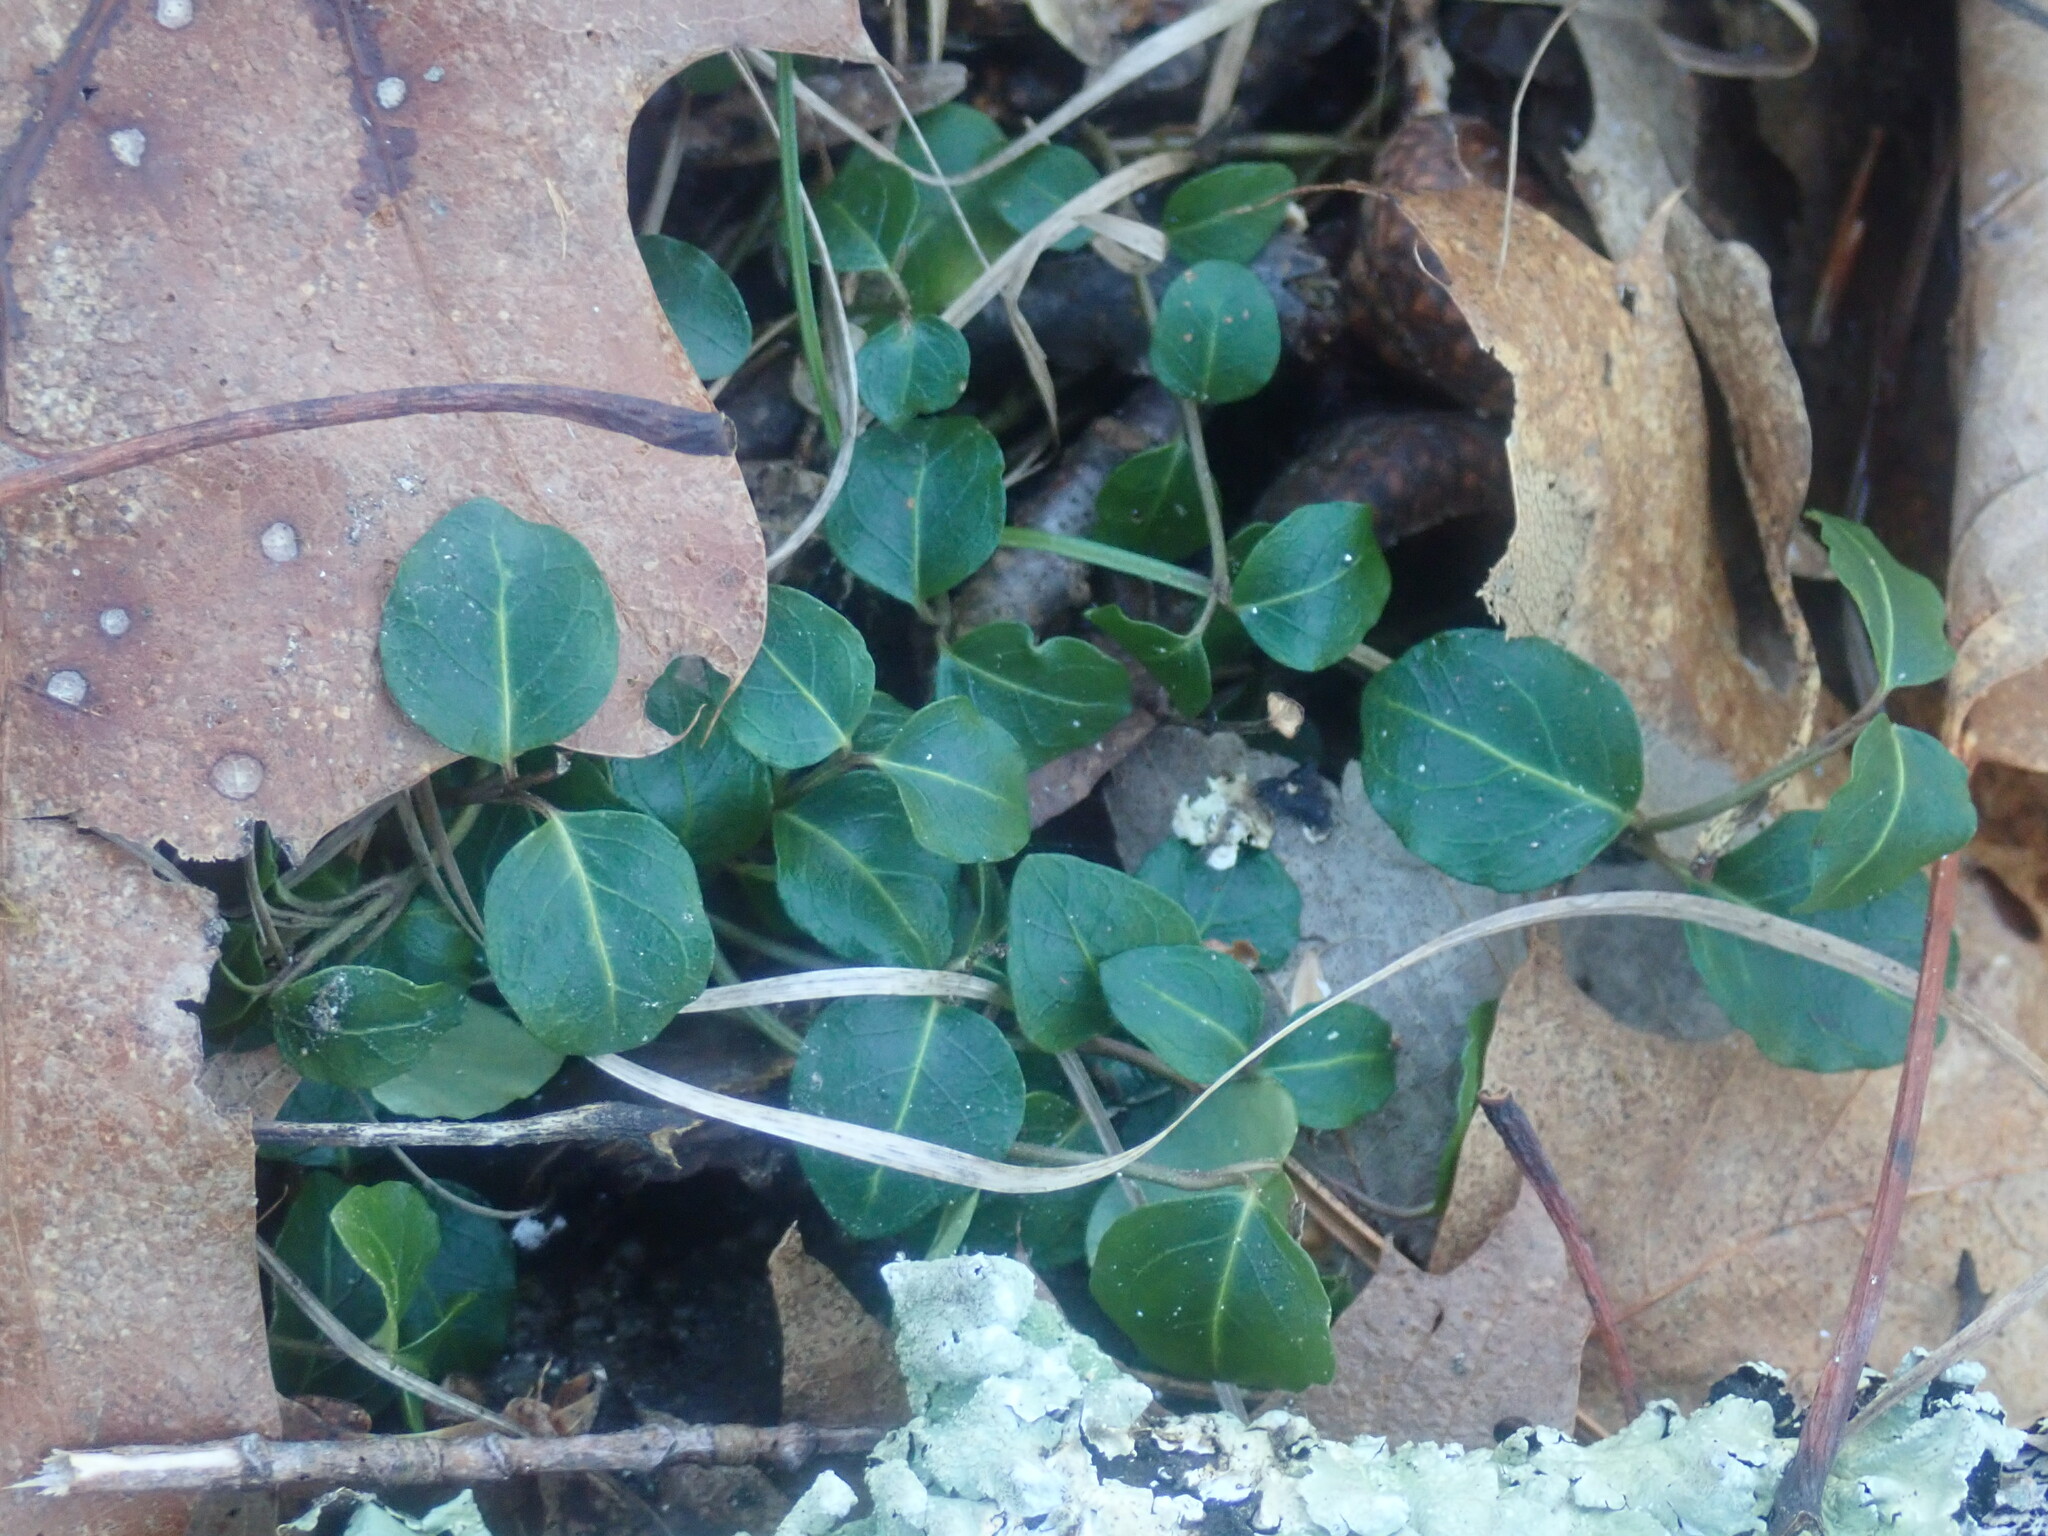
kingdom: Plantae
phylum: Tracheophyta
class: Magnoliopsida
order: Gentianales
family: Rubiaceae
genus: Mitchella
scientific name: Mitchella repens
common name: Partridge-berry
